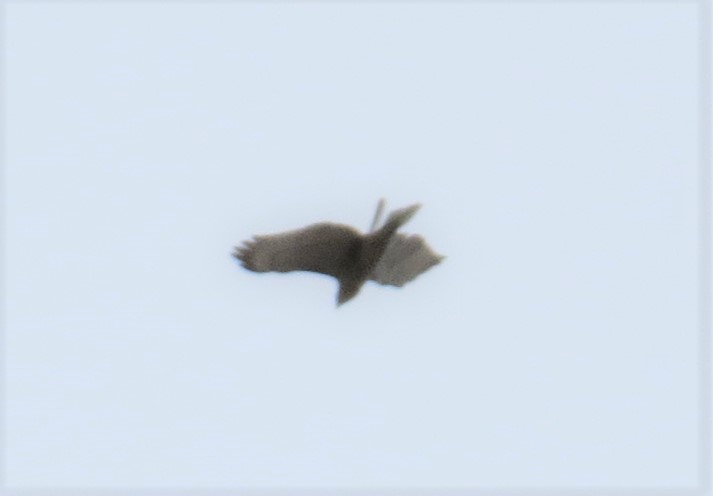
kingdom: Animalia
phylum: Chordata
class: Aves
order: Accipitriformes
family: Accipitridae
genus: Buteo
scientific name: Buteo jamaicensis
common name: Red-tailed hawk
